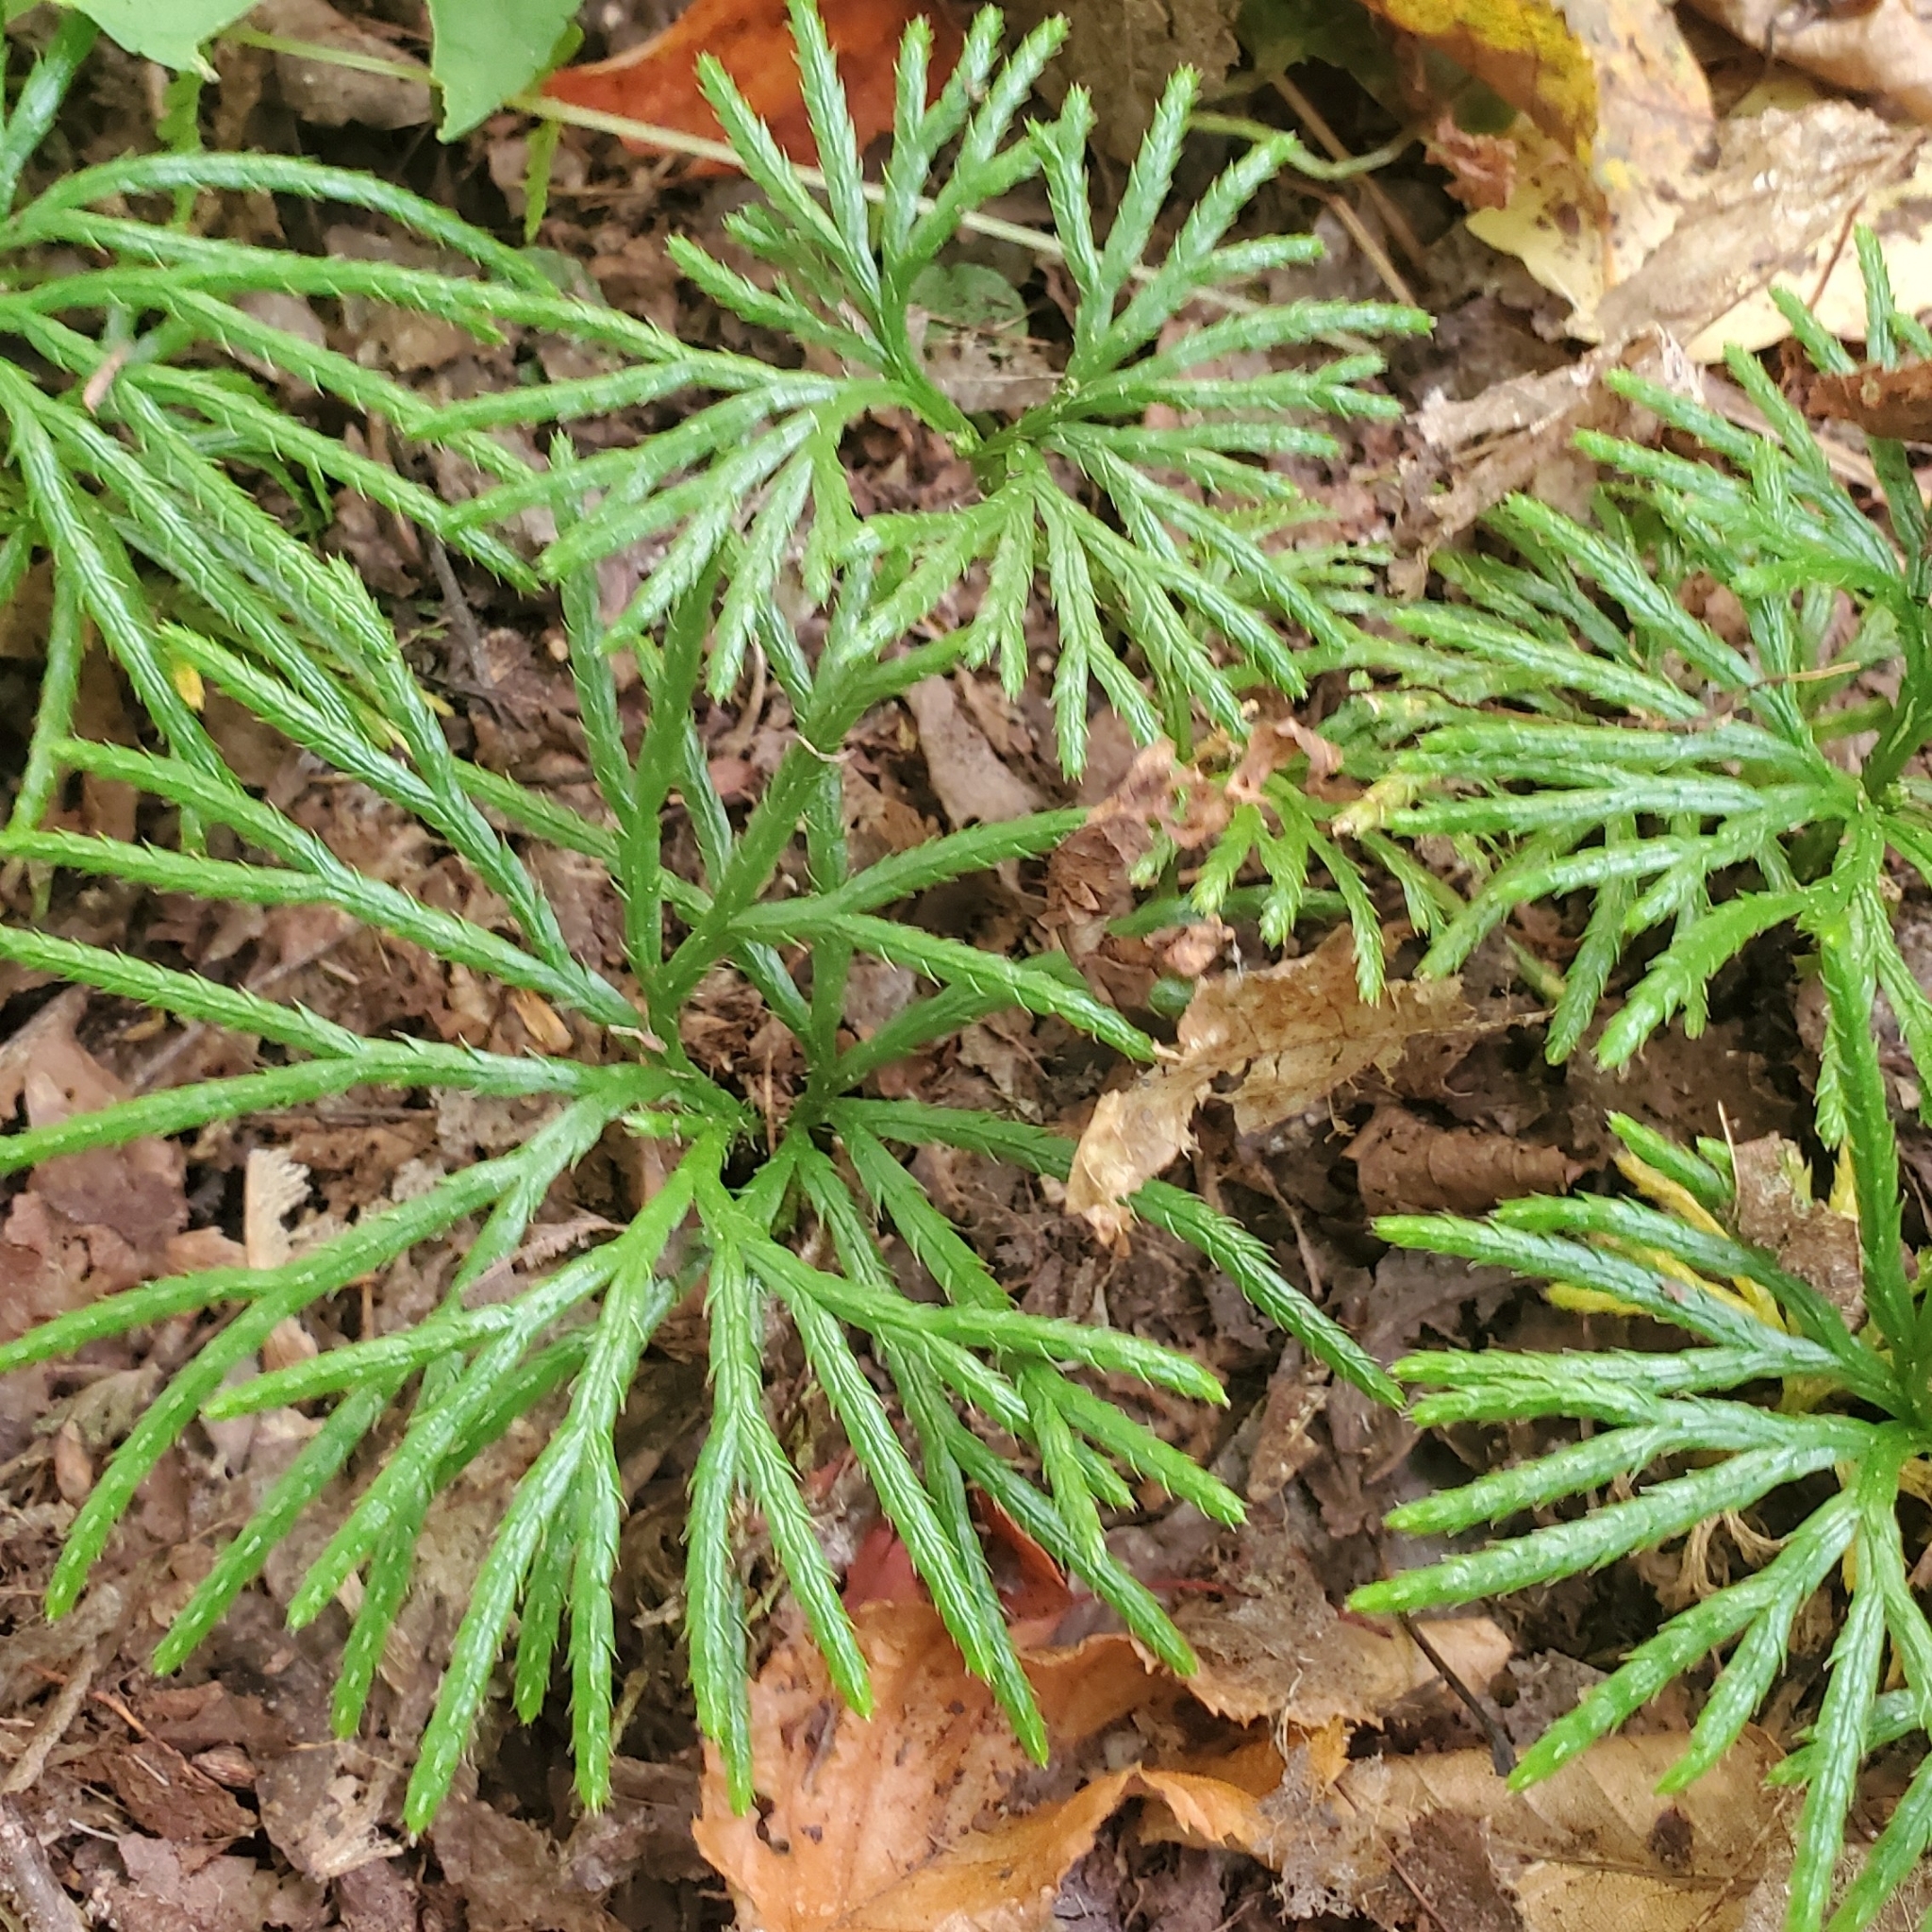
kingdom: Plantae
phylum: Tracheophyta
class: Lycopodiopsida
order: Lycopodiales
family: Lycopodiaceae
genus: Diphasiastrum
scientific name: Diphasiastrum digitatum
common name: Southern running-pine
